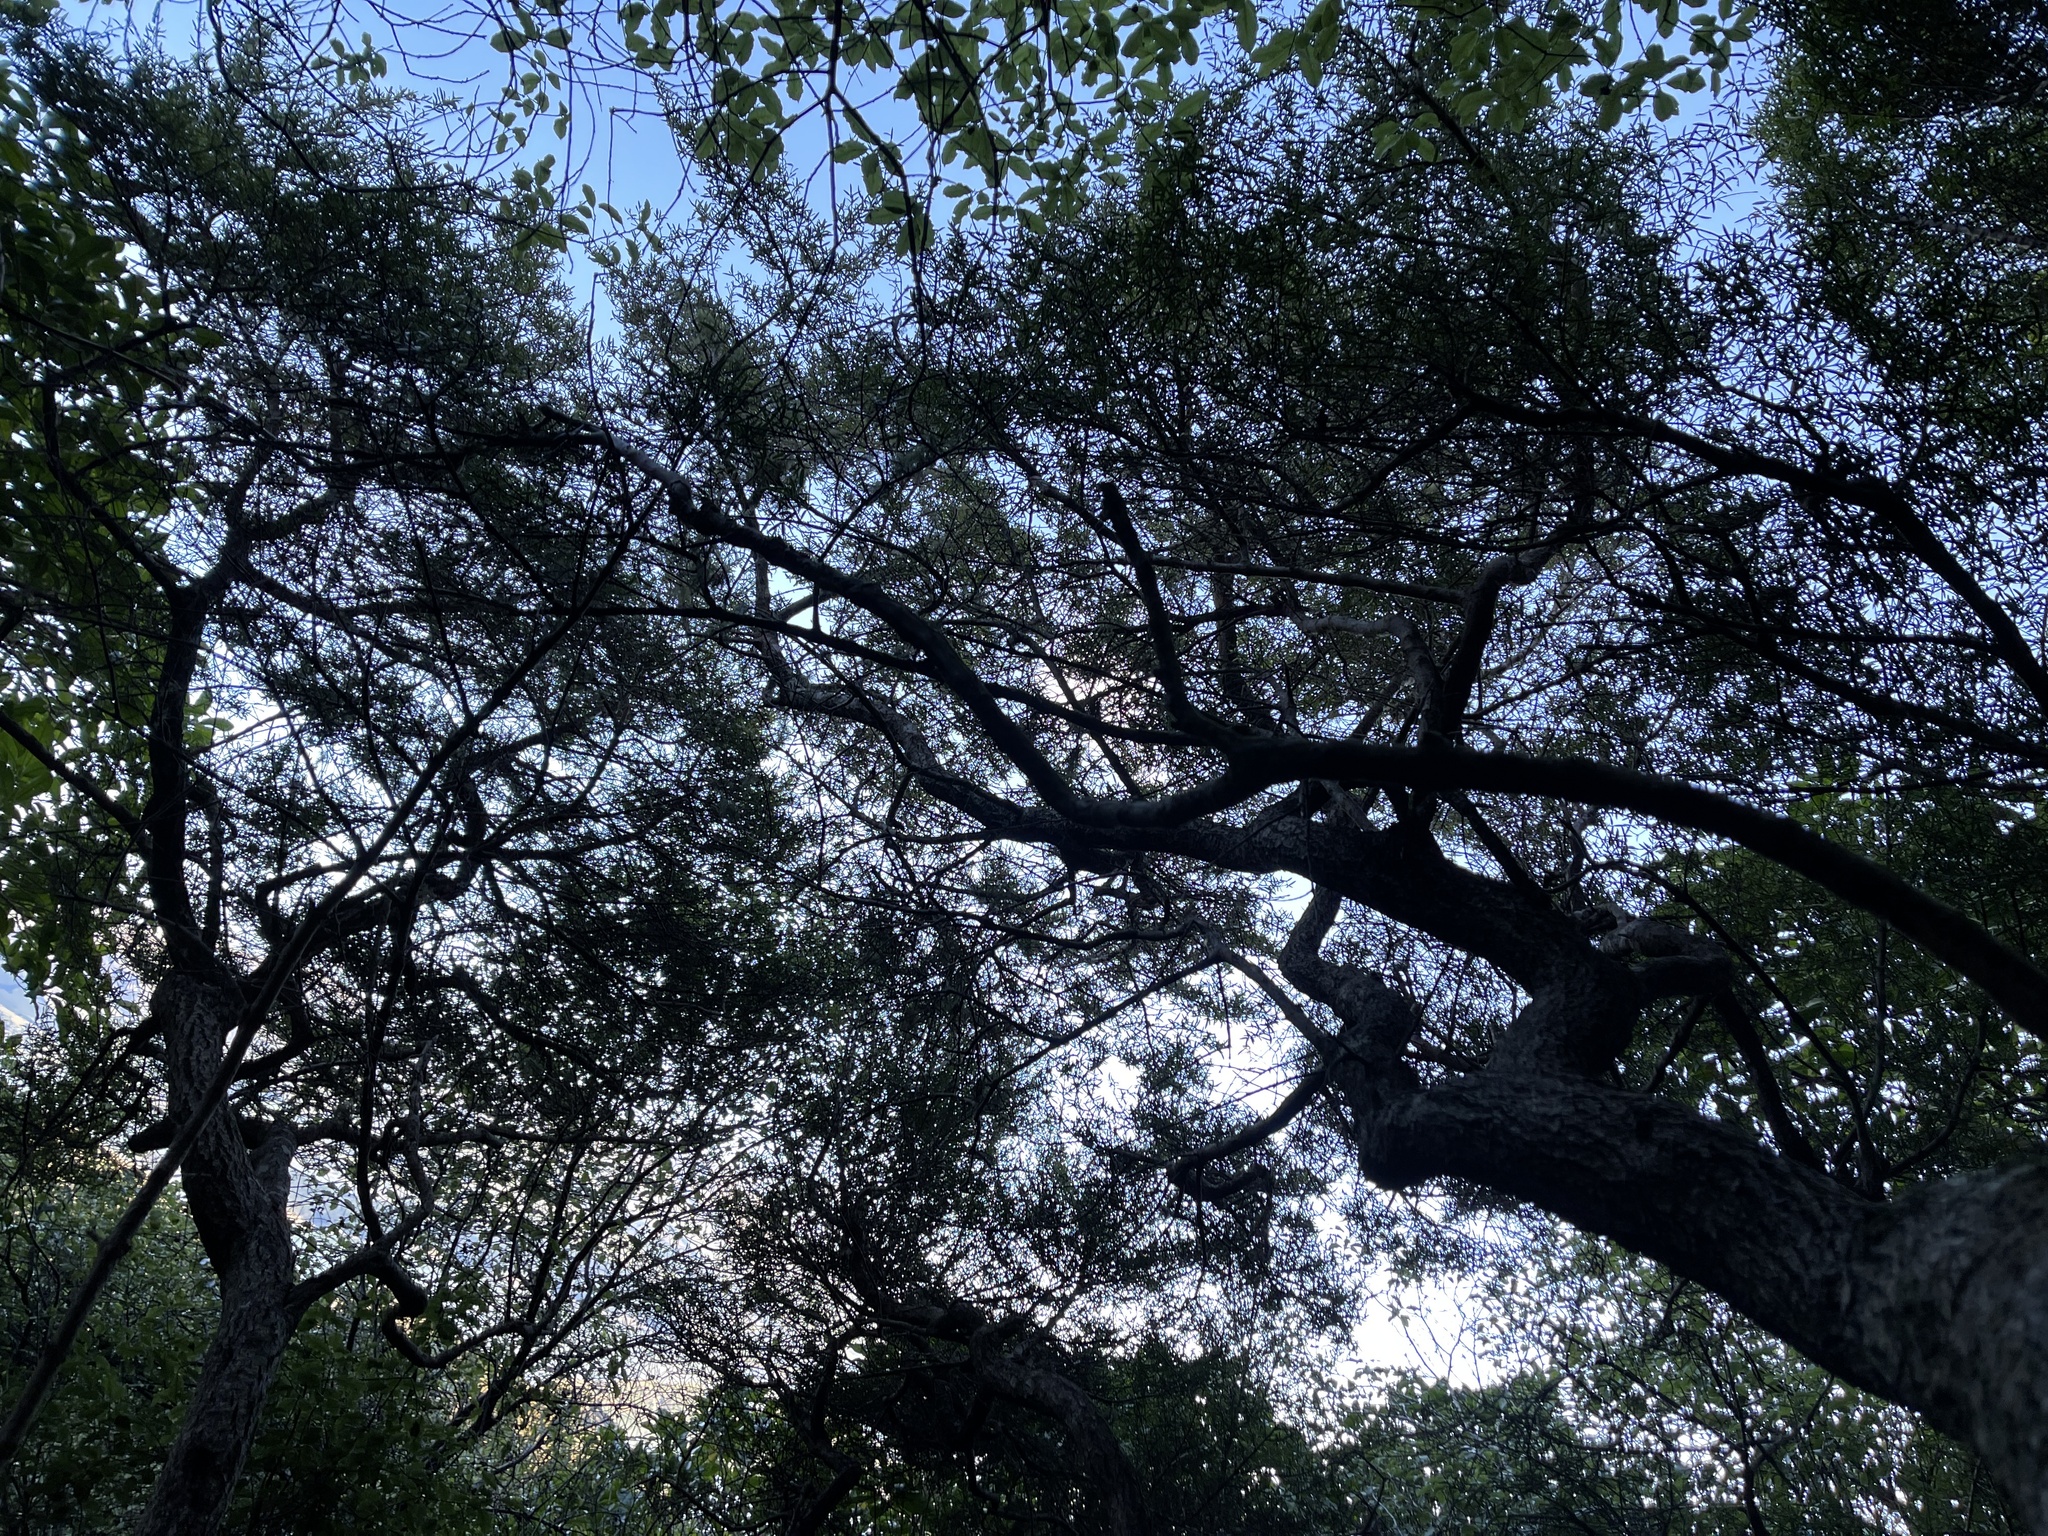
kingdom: Plantae
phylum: Tracheophyta
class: Magnoliopsida
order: Gentianales
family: Rubiaceae
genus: Coprosma
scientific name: Coprosma linariifolia
